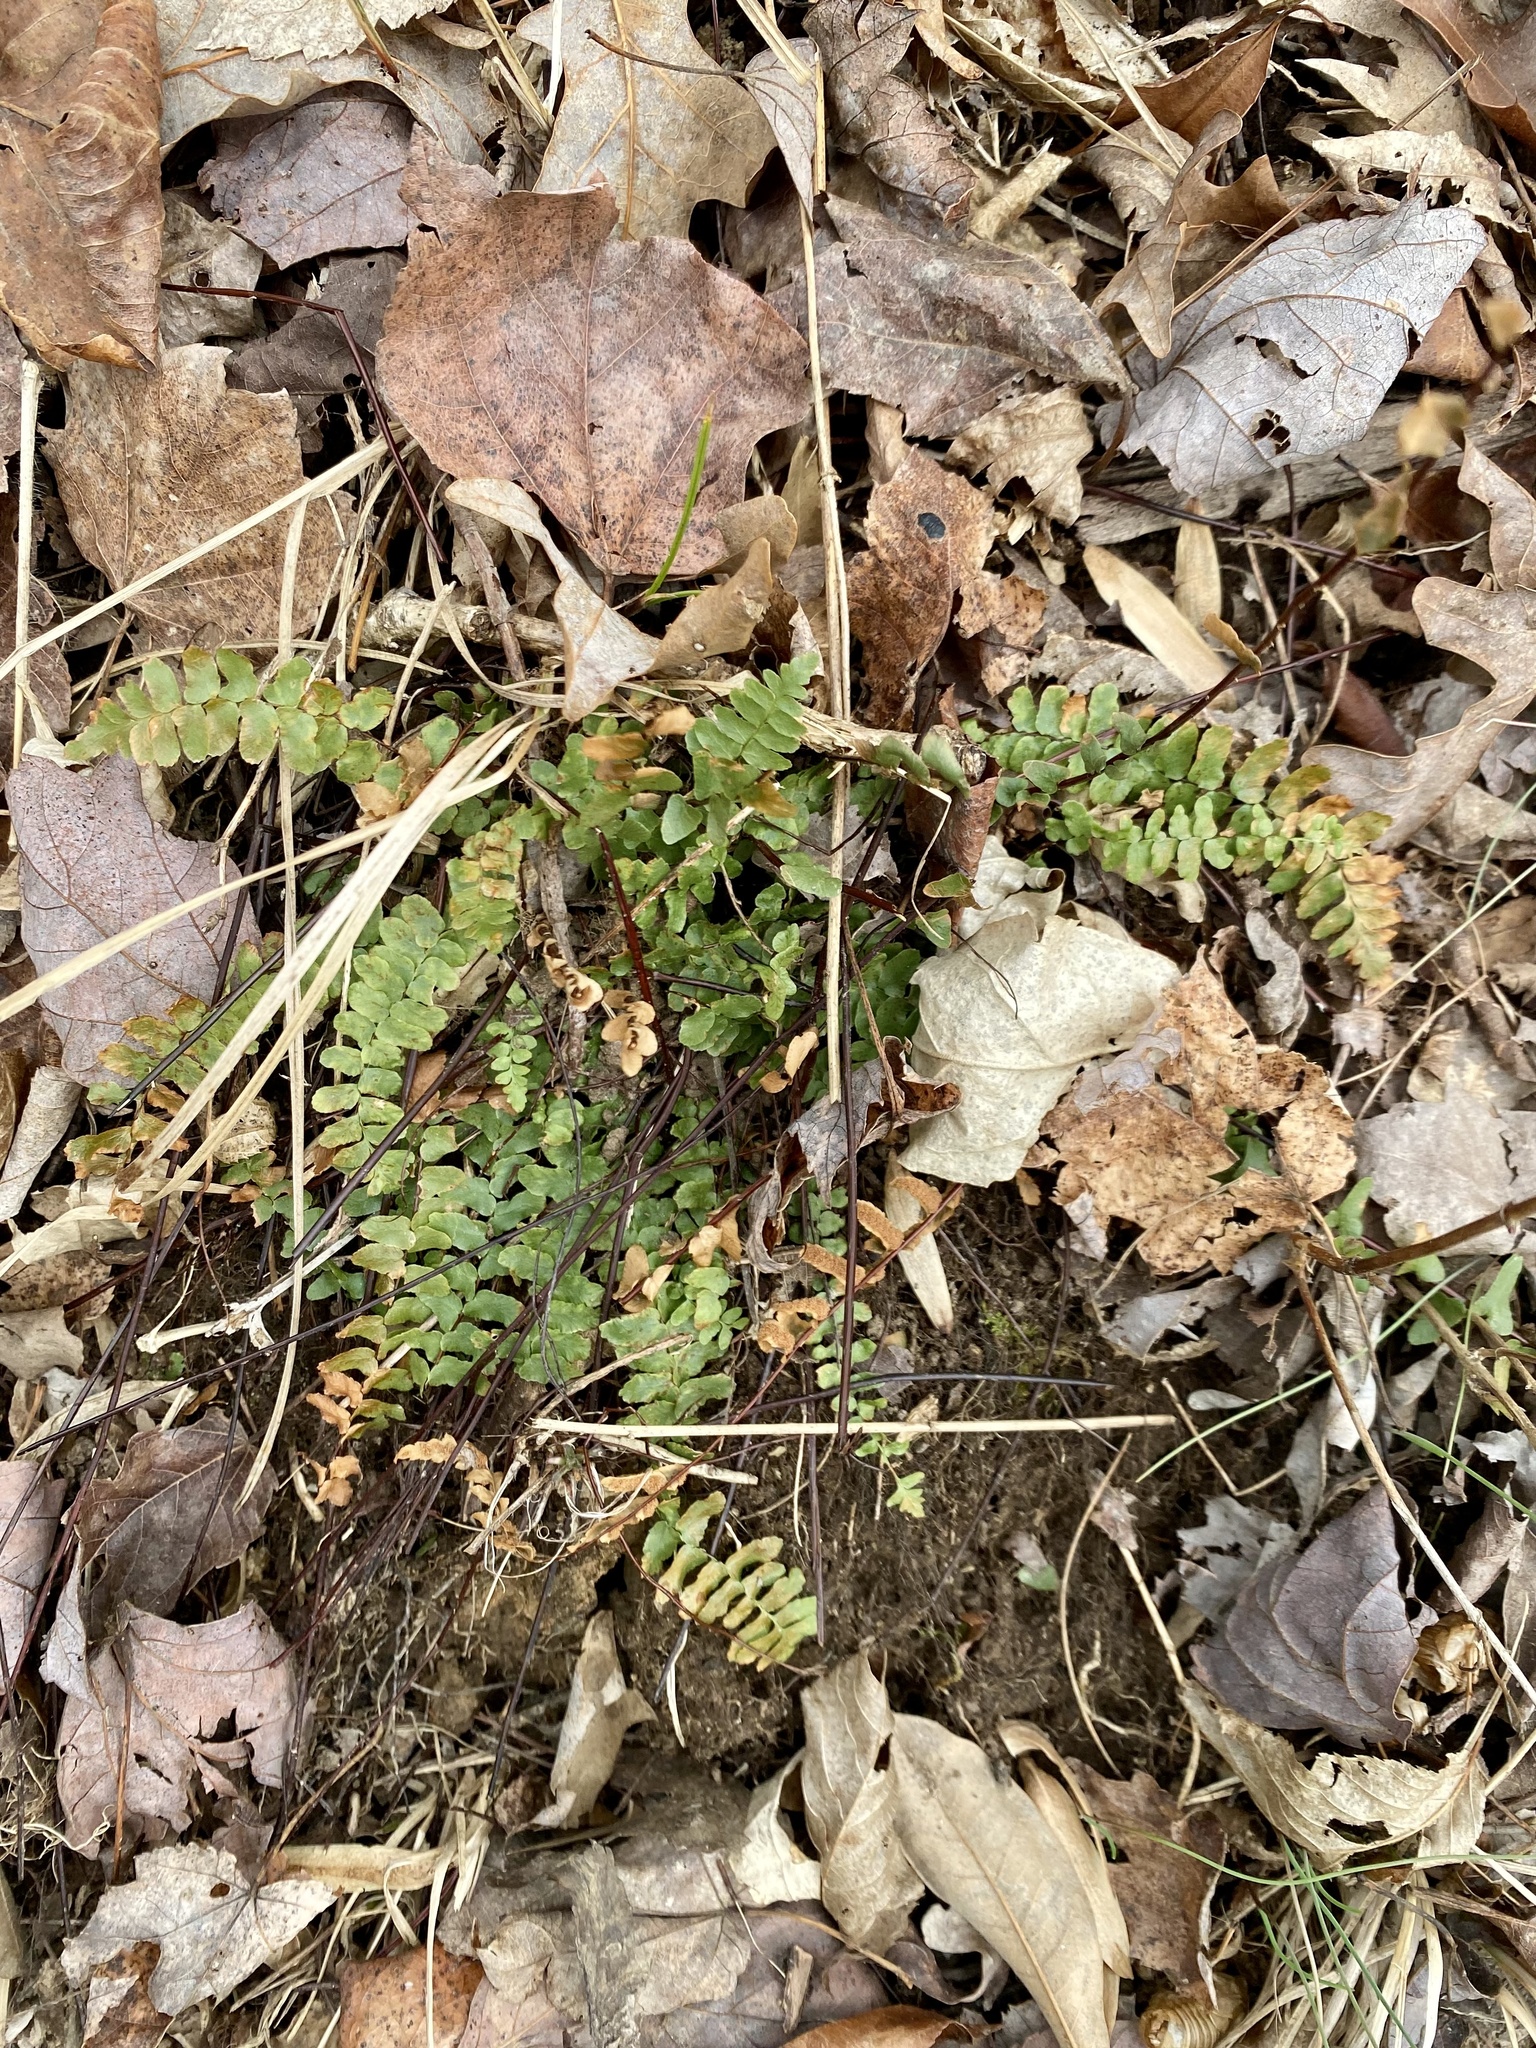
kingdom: Plantae
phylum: Tracheophyta
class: Polypodiopsida
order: Polypodiales
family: Aspleniaceae
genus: Asplenium
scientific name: Asplenium platyneuron
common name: Ebony spleenwort
